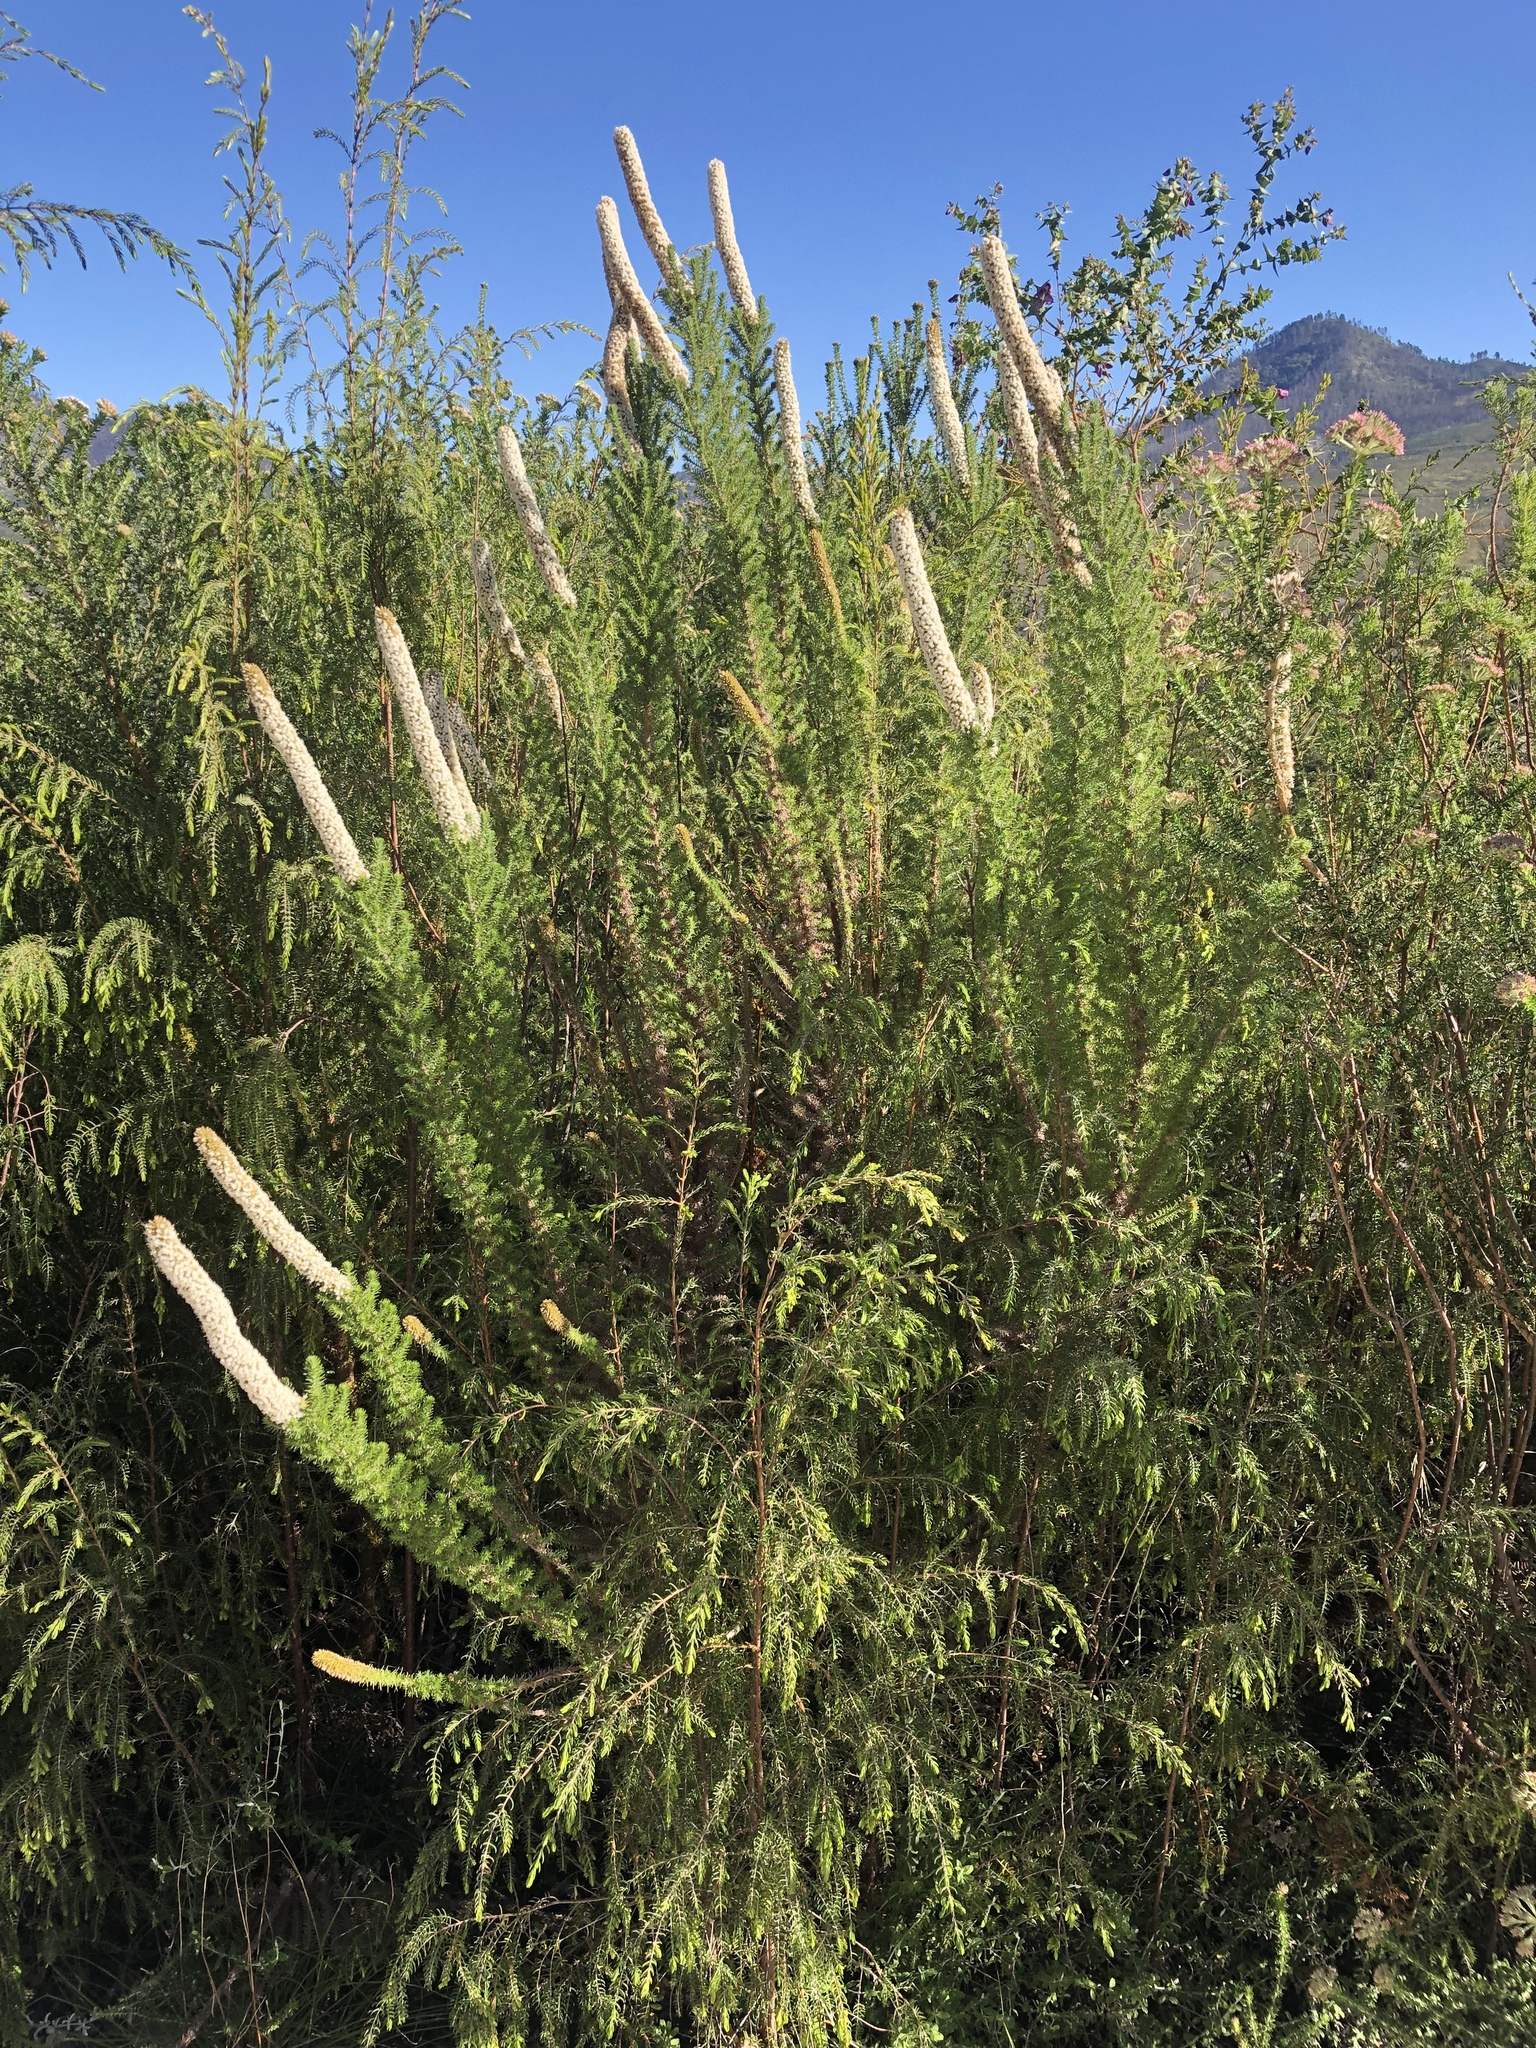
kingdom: Plantae
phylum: Tracheophyta
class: Magnoliopsida
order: Asterales
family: Asteraceae
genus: Stoebe
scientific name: Stoebe alopecuroides
